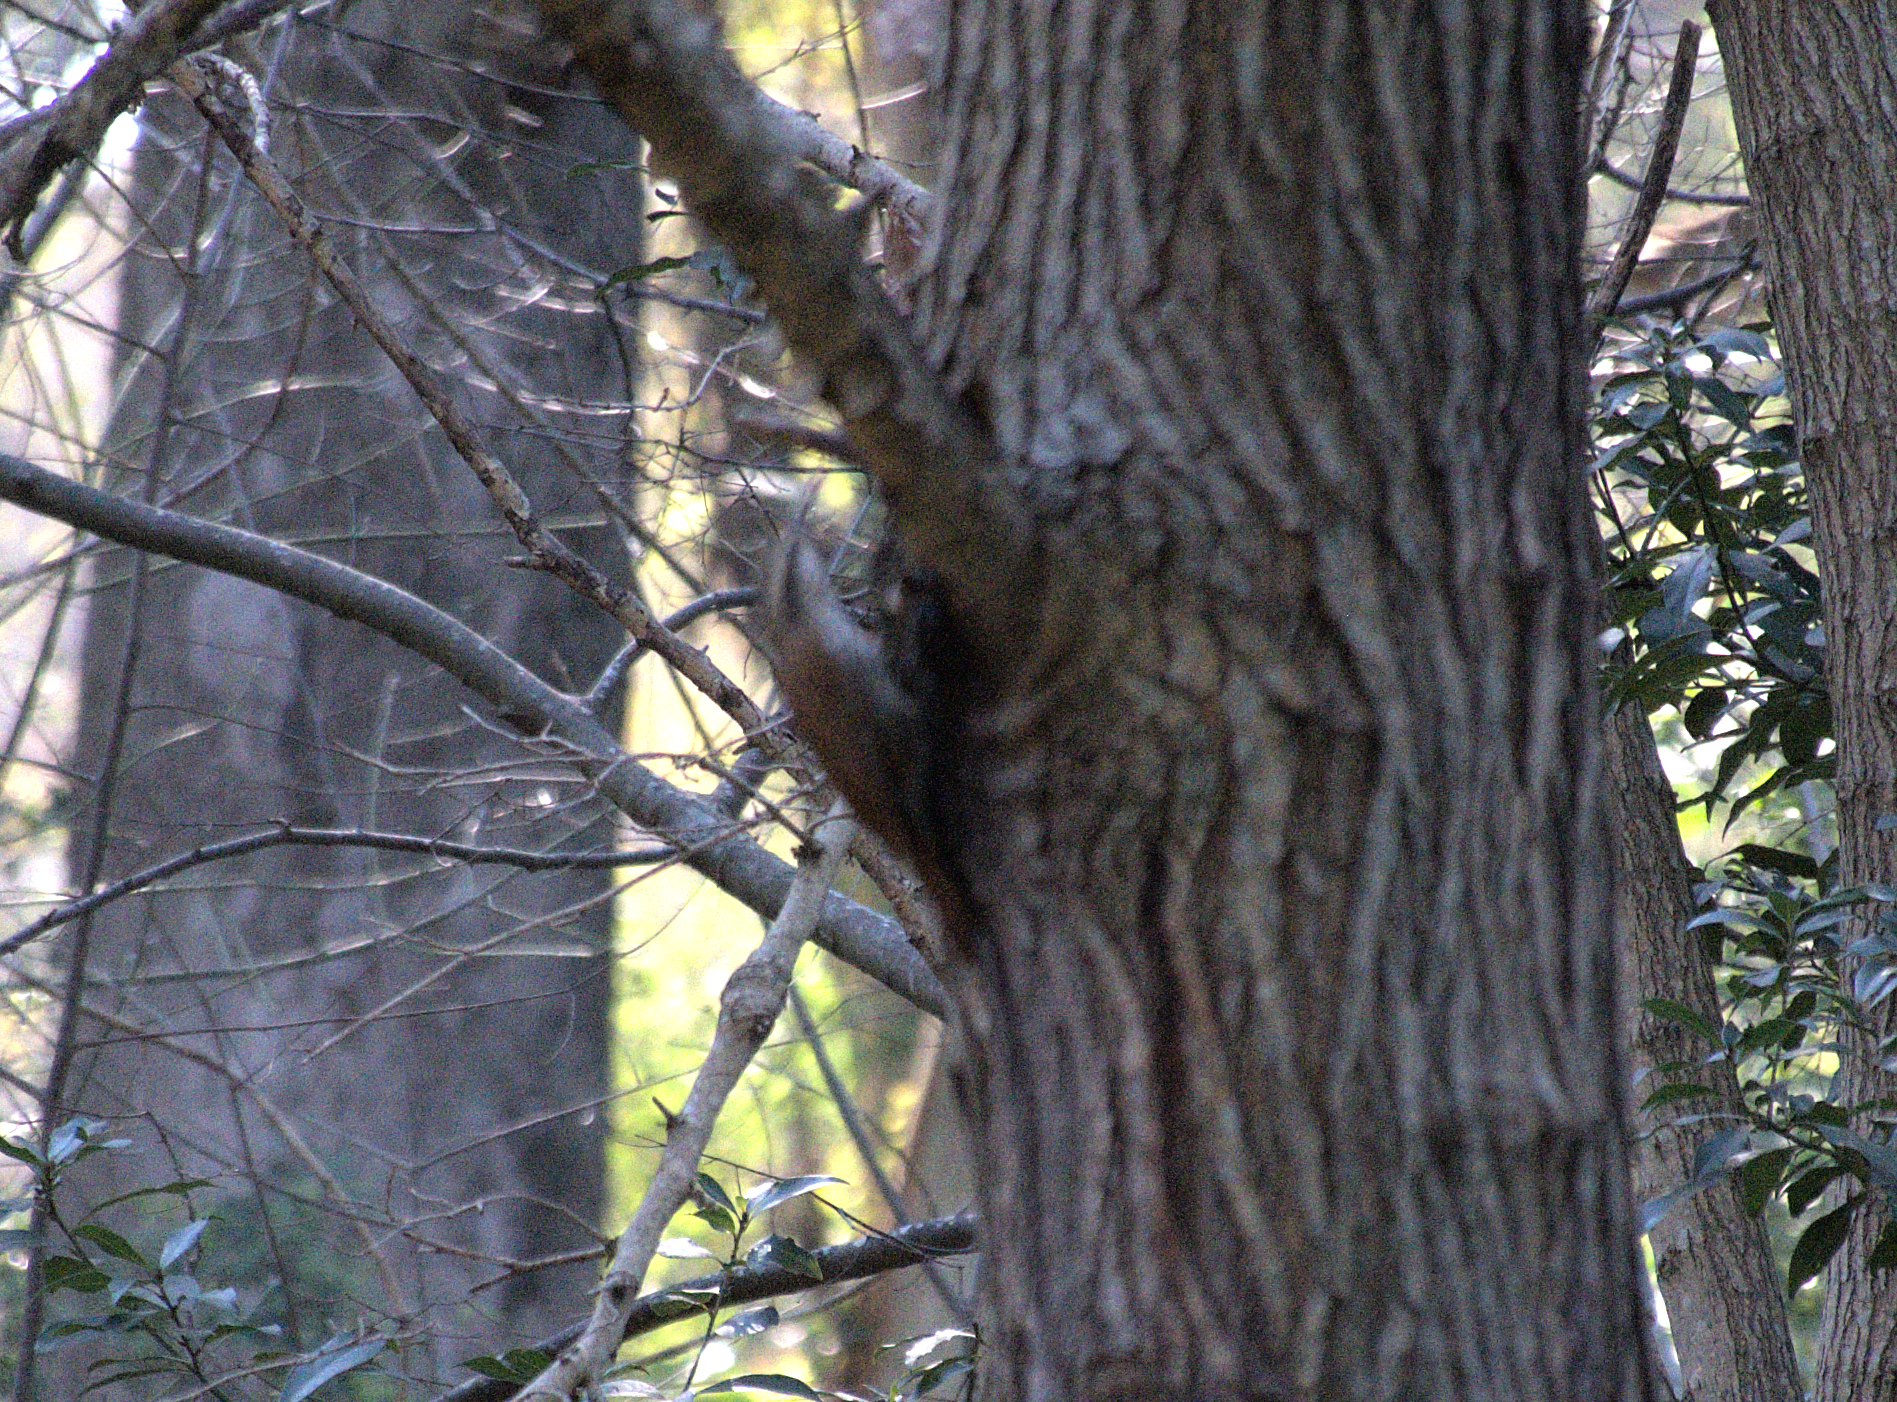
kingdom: Animalia
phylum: Chordata
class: Aves
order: Passeriformes
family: Furnariidae
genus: Lepidocolaptes
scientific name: Lepidocolaptes angustirostris
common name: Narrow-billed woodcreeper
